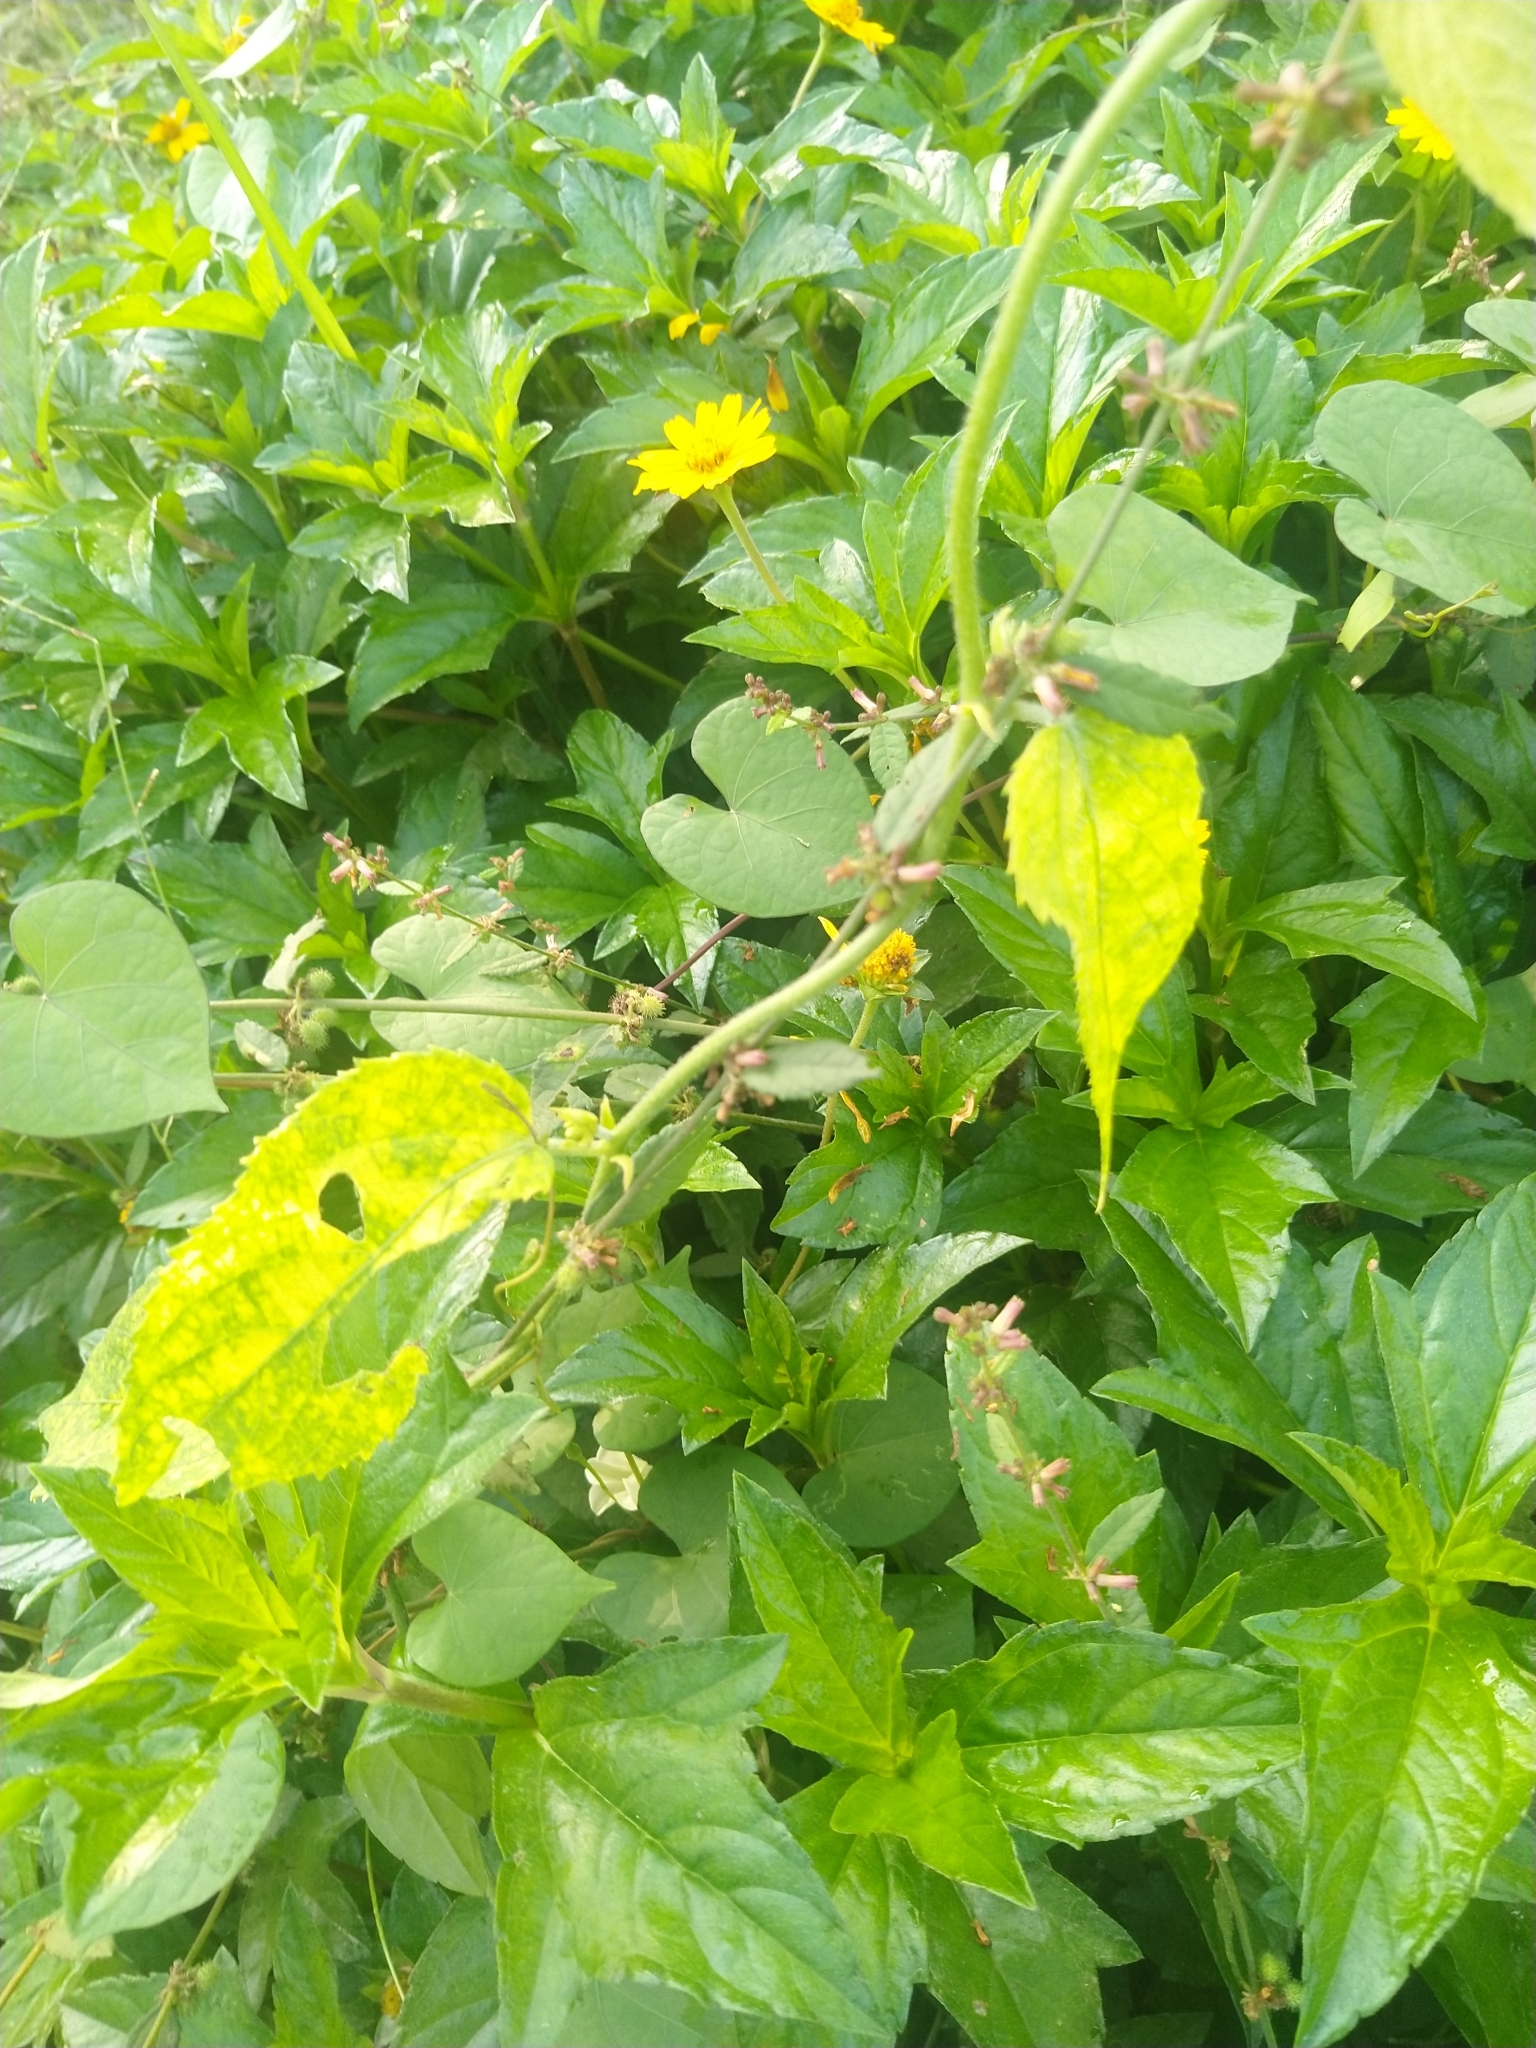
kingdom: Plantae
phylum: Tracheophyta
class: Magnoliopsida
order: Malpighiales
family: Euphorbiaceae
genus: Tragia
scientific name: Tragia involucrata
